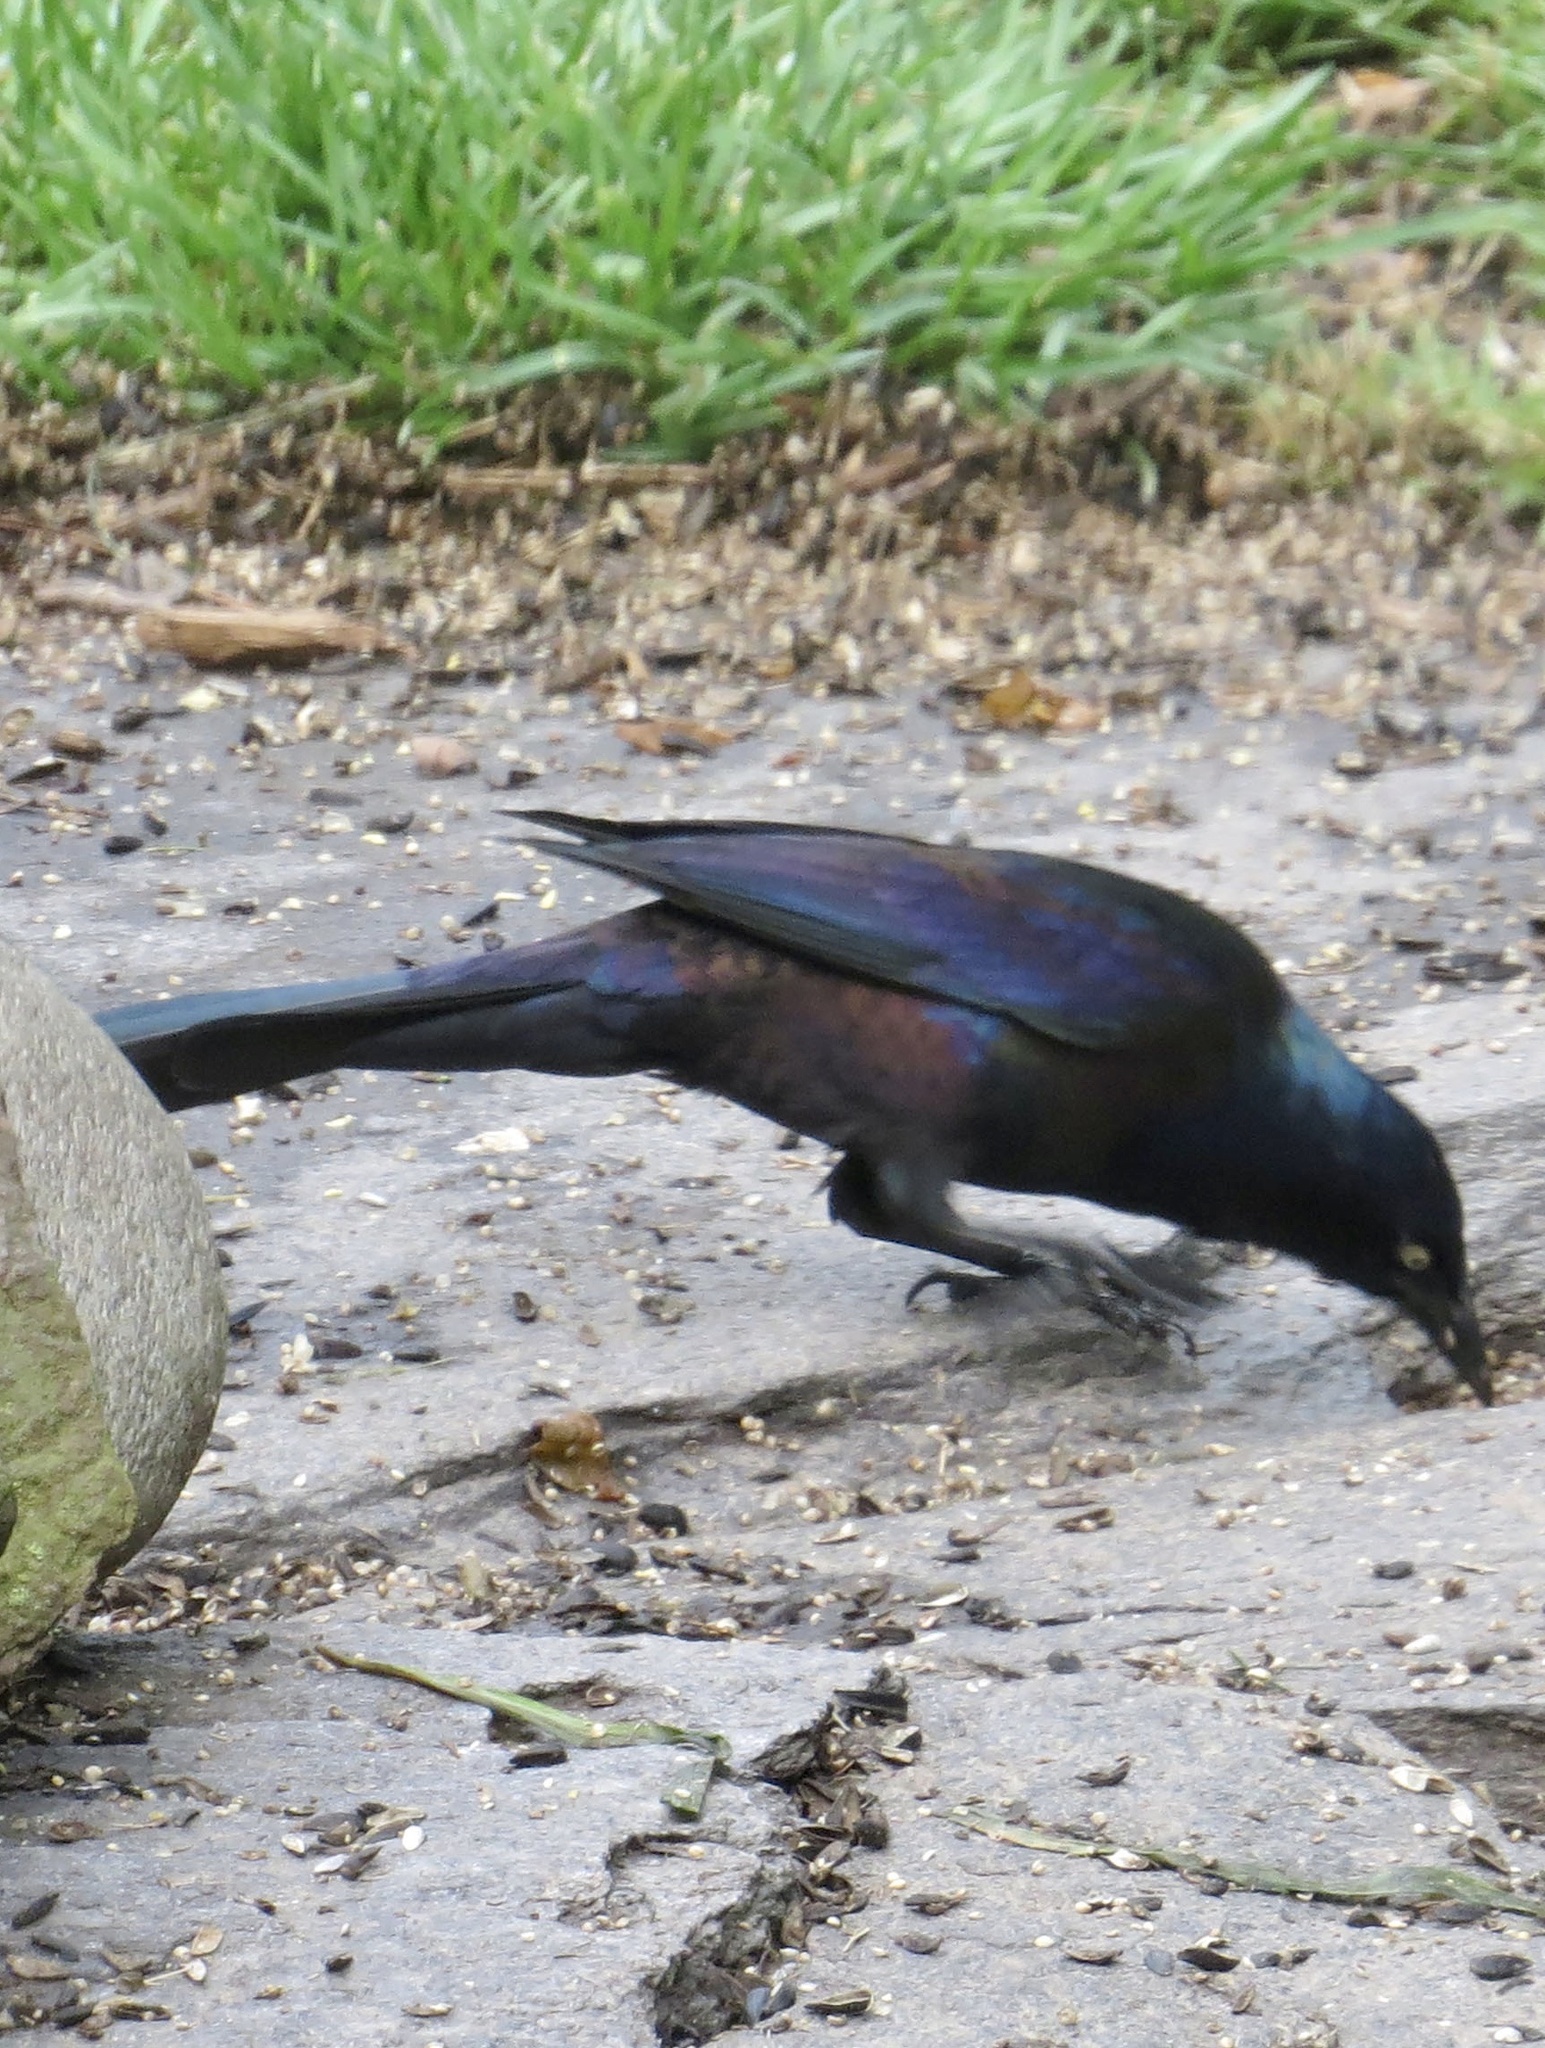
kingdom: Animalia
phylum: Chordata
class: Aves
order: Passeriformes
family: Icteridae
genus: Quiscalus
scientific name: Quiscalus quiscula
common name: Common grackle
